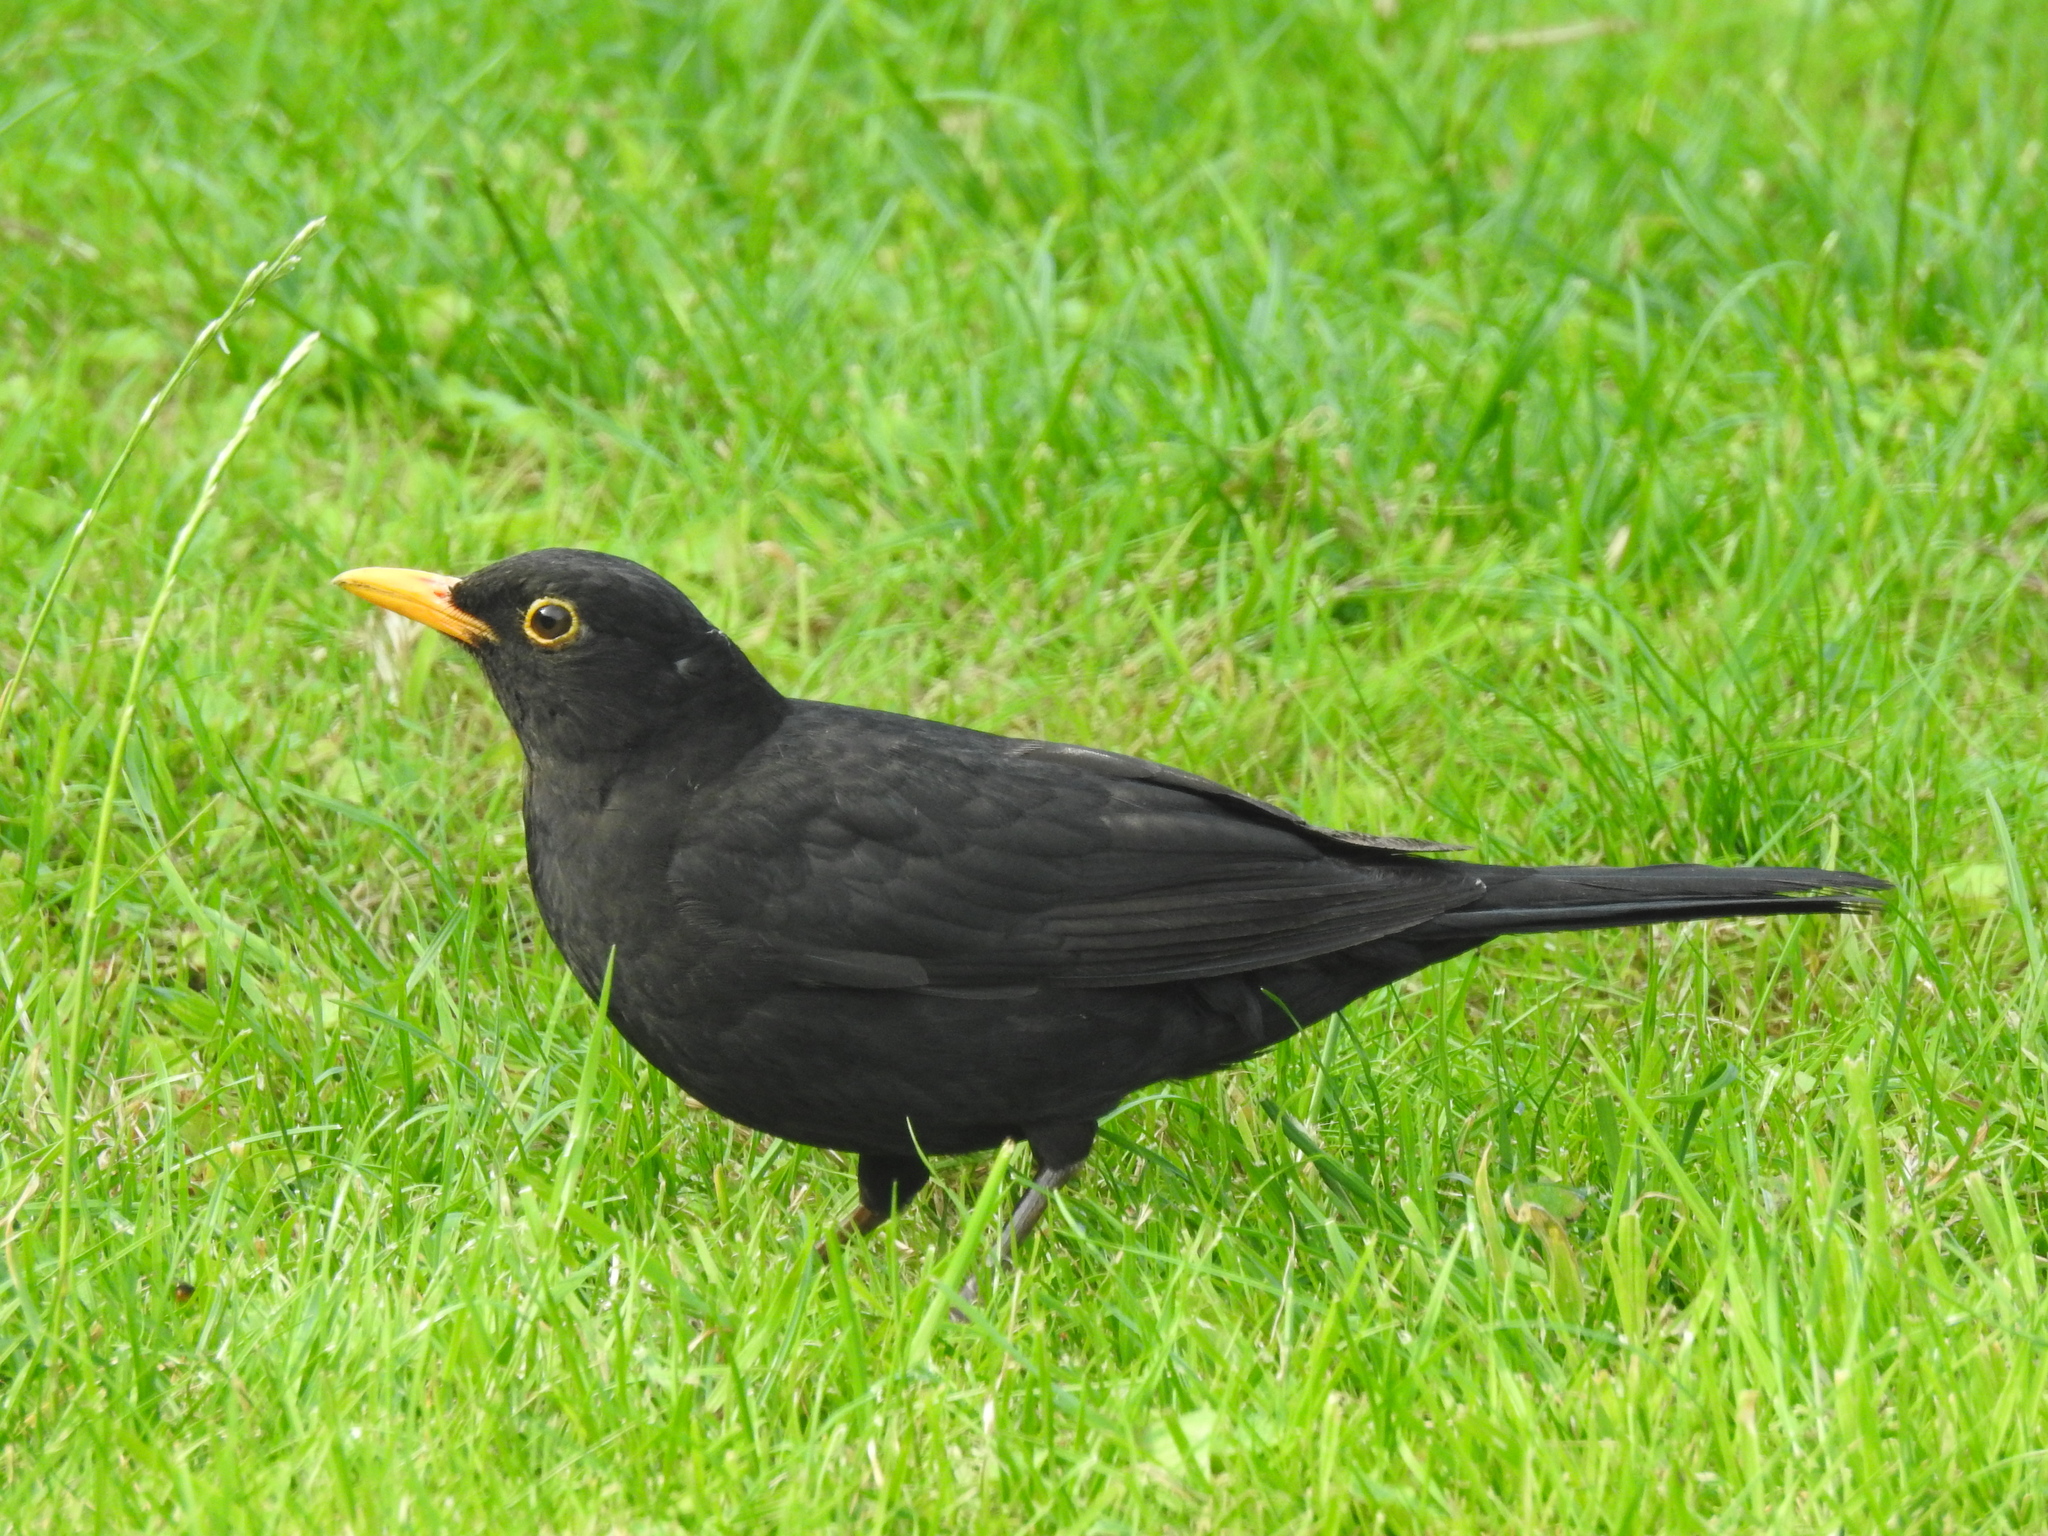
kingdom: Animalia
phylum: Chordata
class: Aves
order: Passeriformes
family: Turdidae
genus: Turdus
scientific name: Turdus merula
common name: Common blackbird
